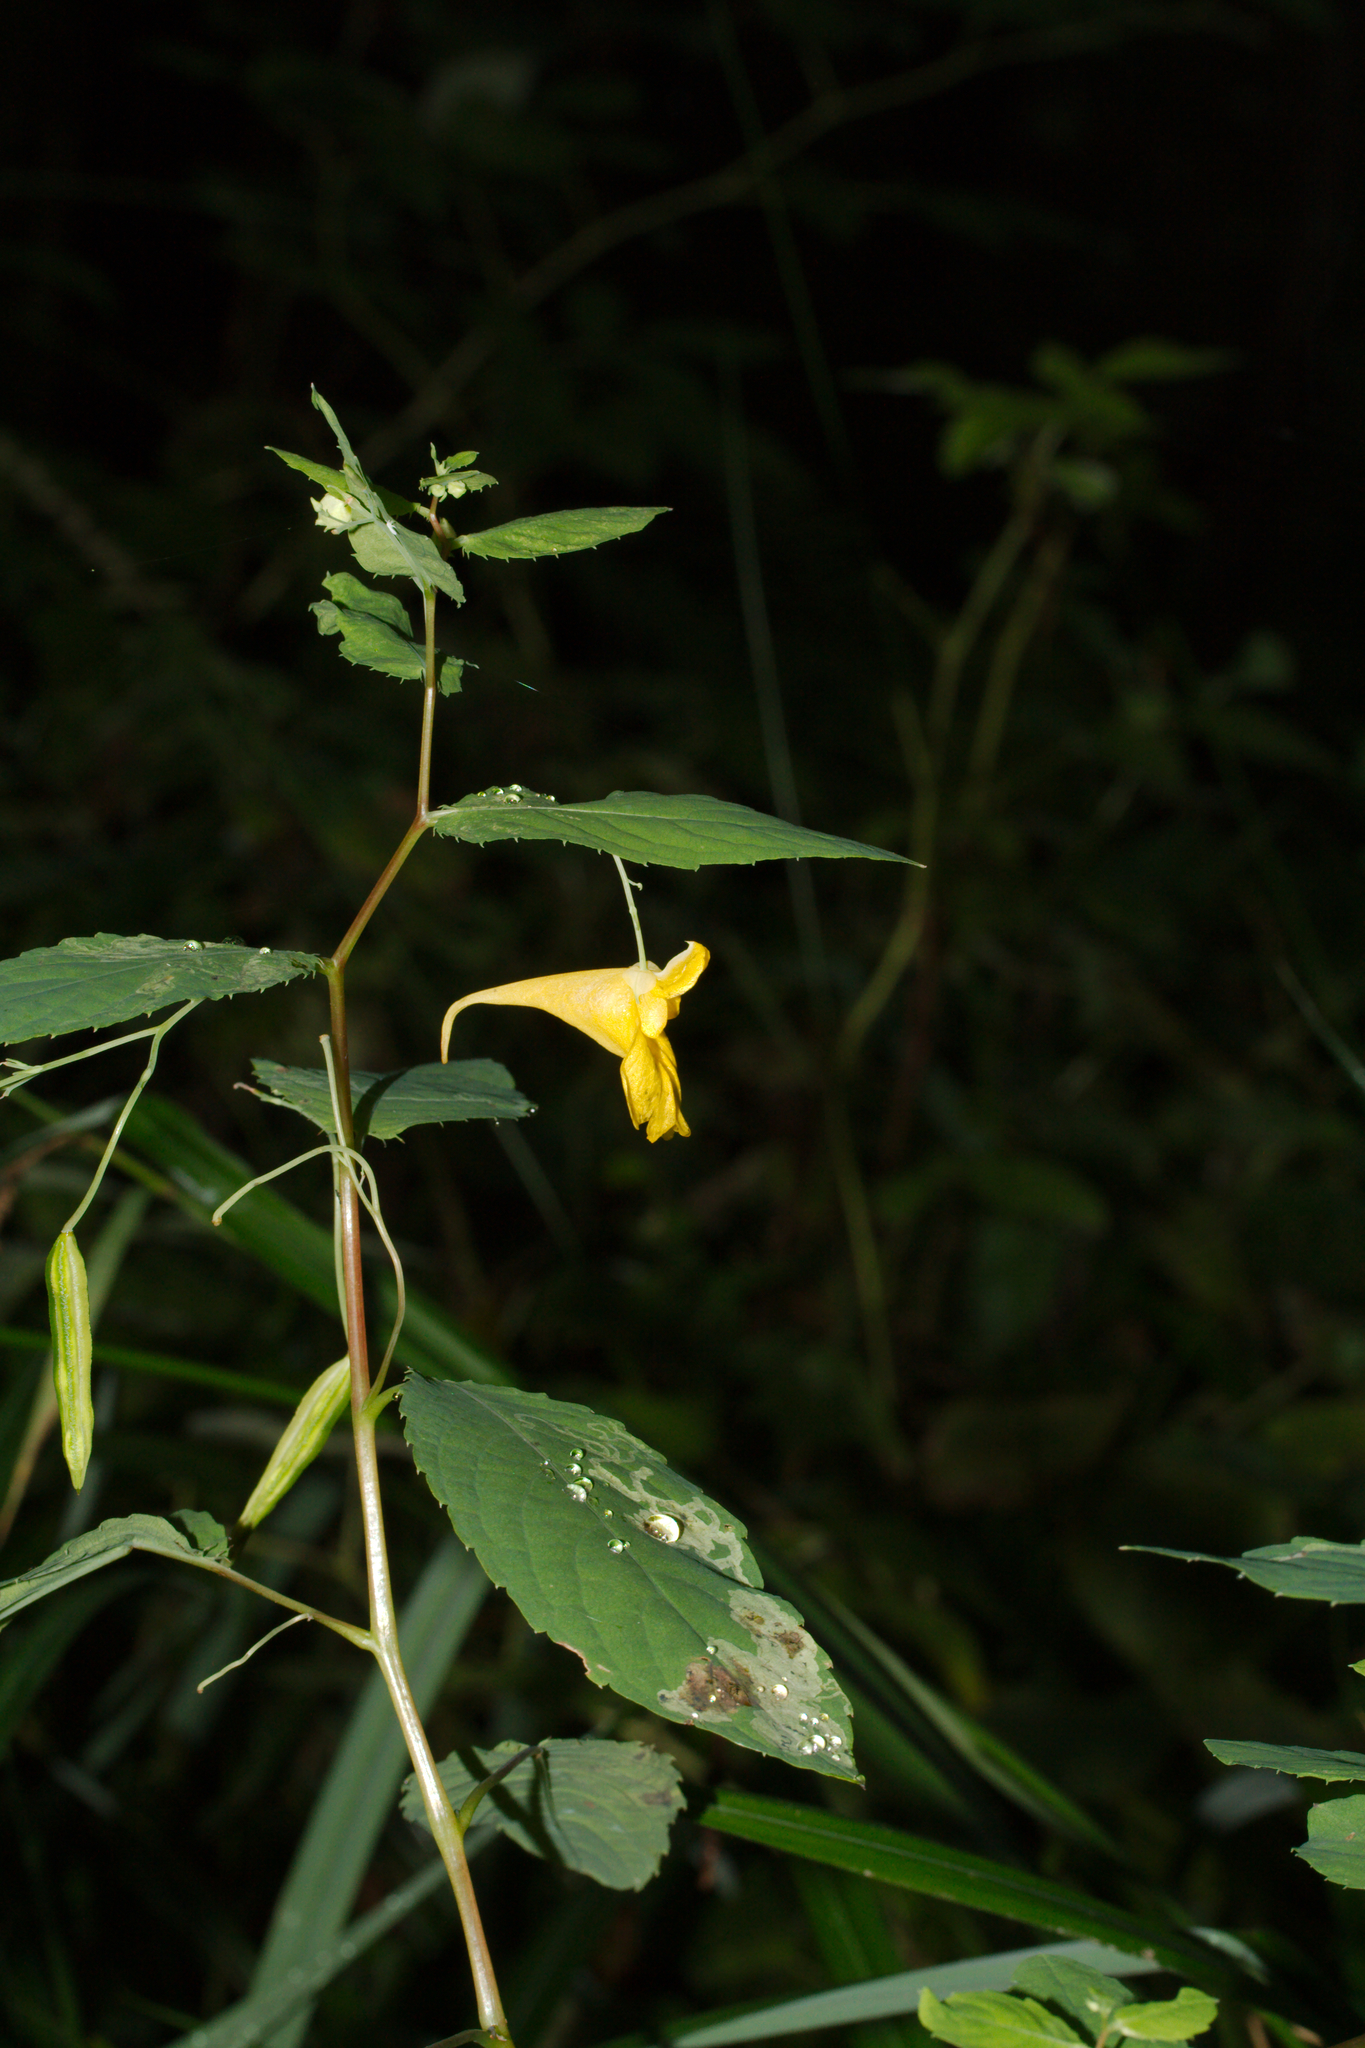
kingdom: Plantae
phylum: Tracheophyta
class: Magnoliopsida
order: Ericales
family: Balsaminaceae
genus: Impatiens
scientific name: Impatiens noli-tangere
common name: Touch-me-not balsam
